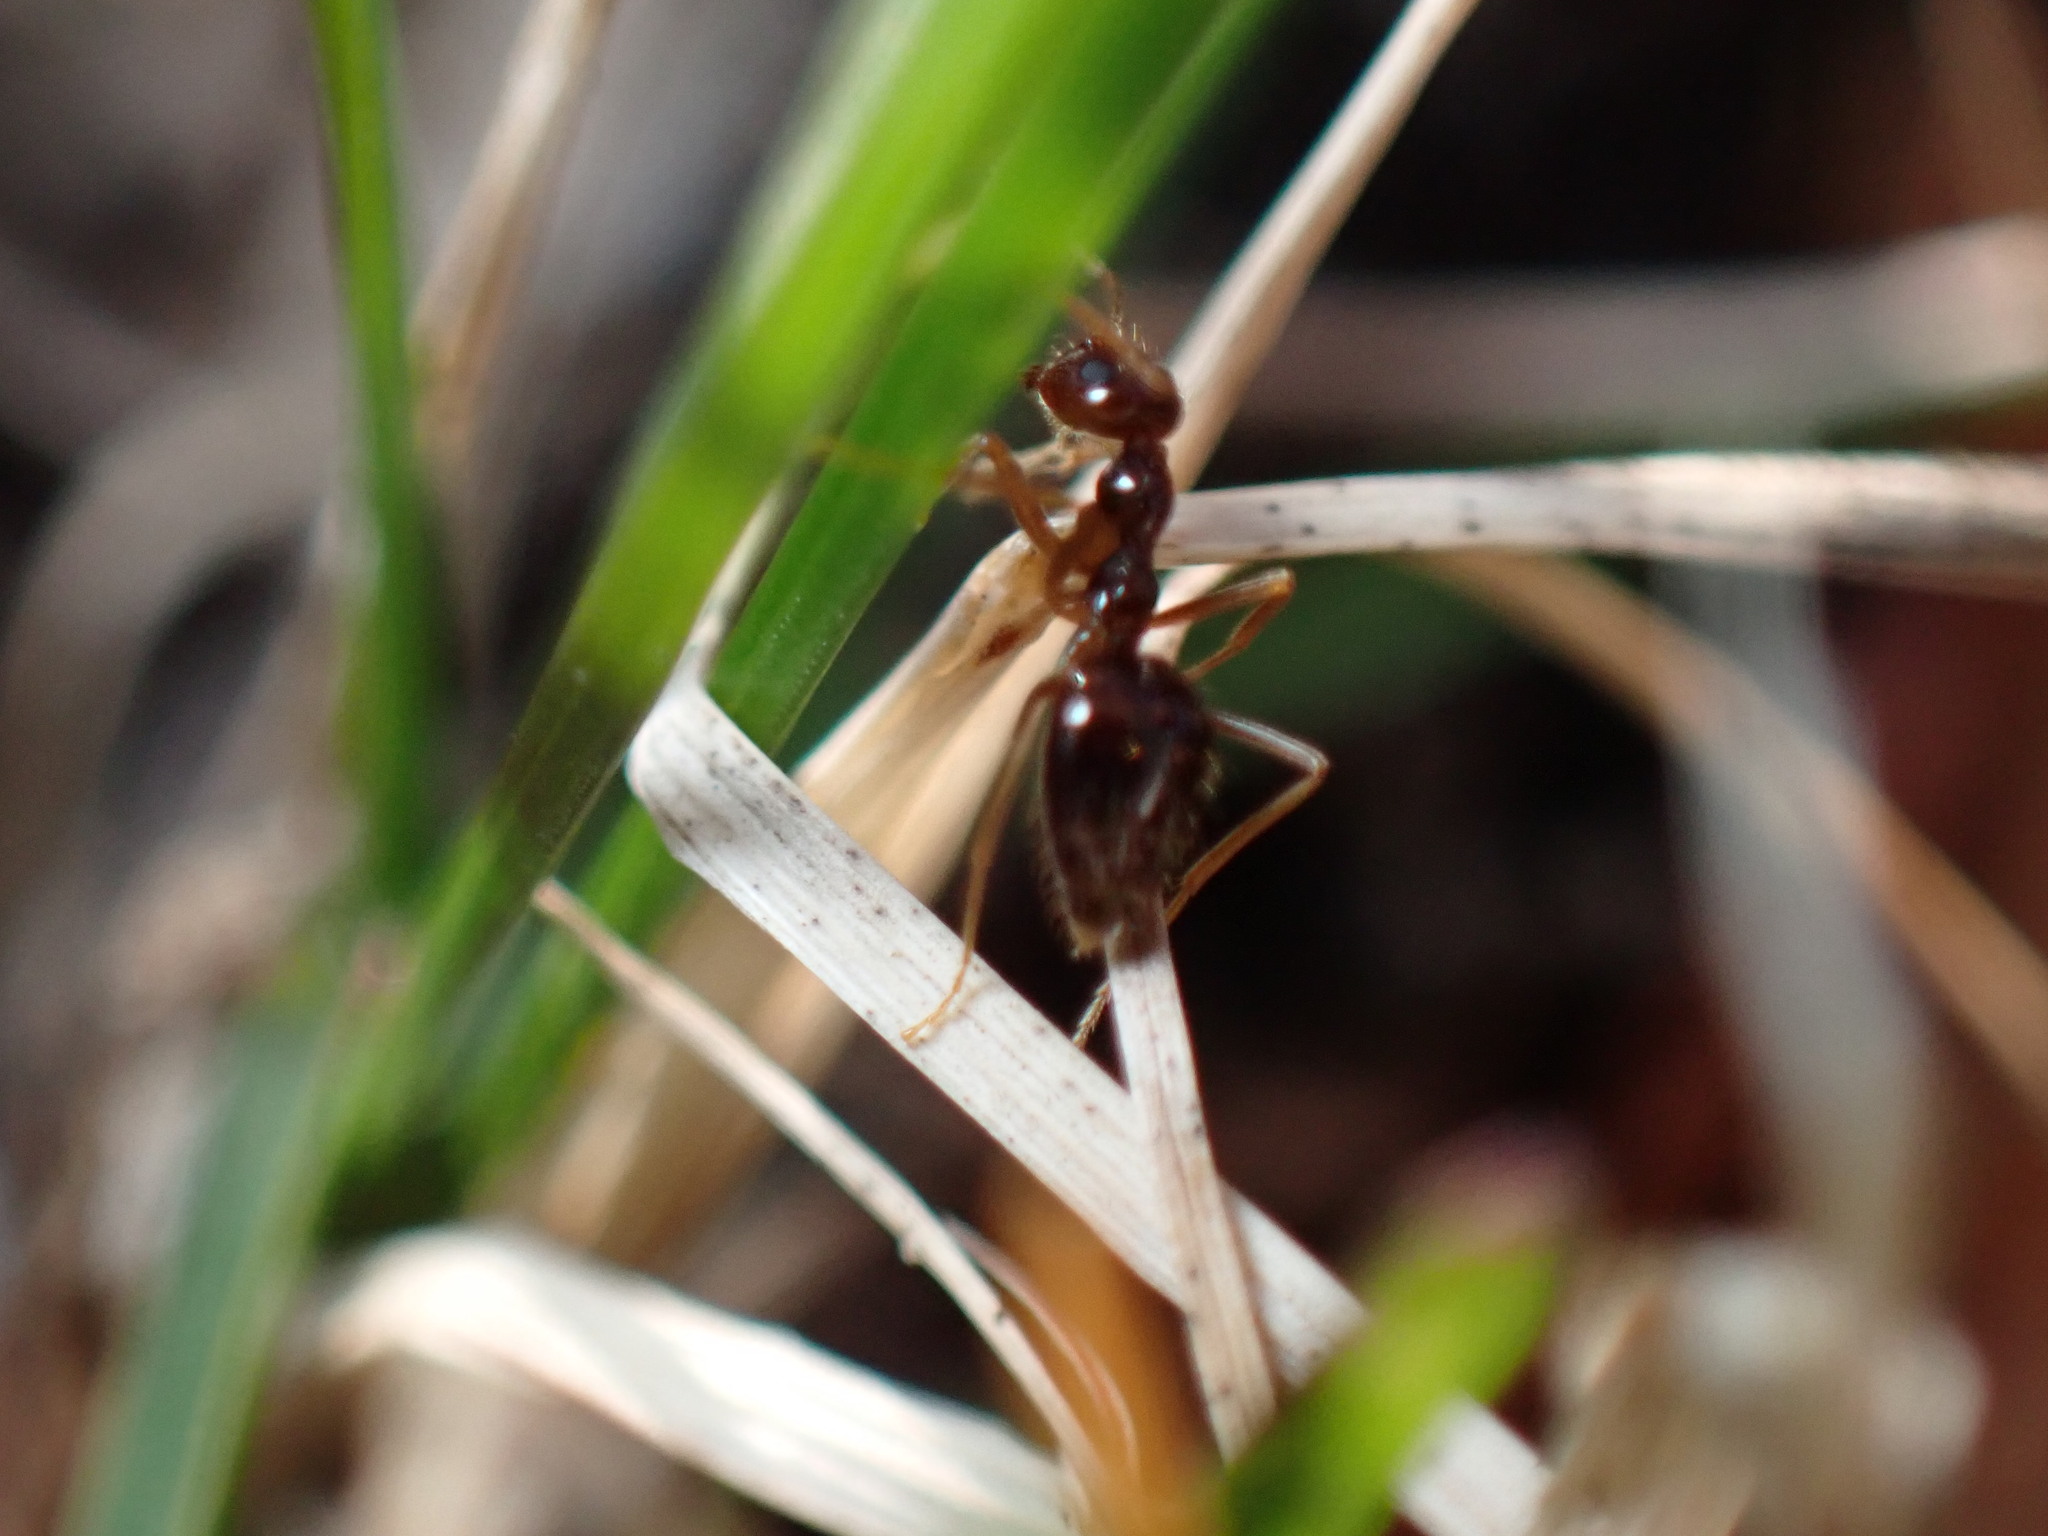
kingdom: Animalia
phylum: Arthropoda
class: Insecta
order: Hymenoptera
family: Formicidae
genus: Prenolepis
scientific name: Prenolepis imparis
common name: Small honey ant
